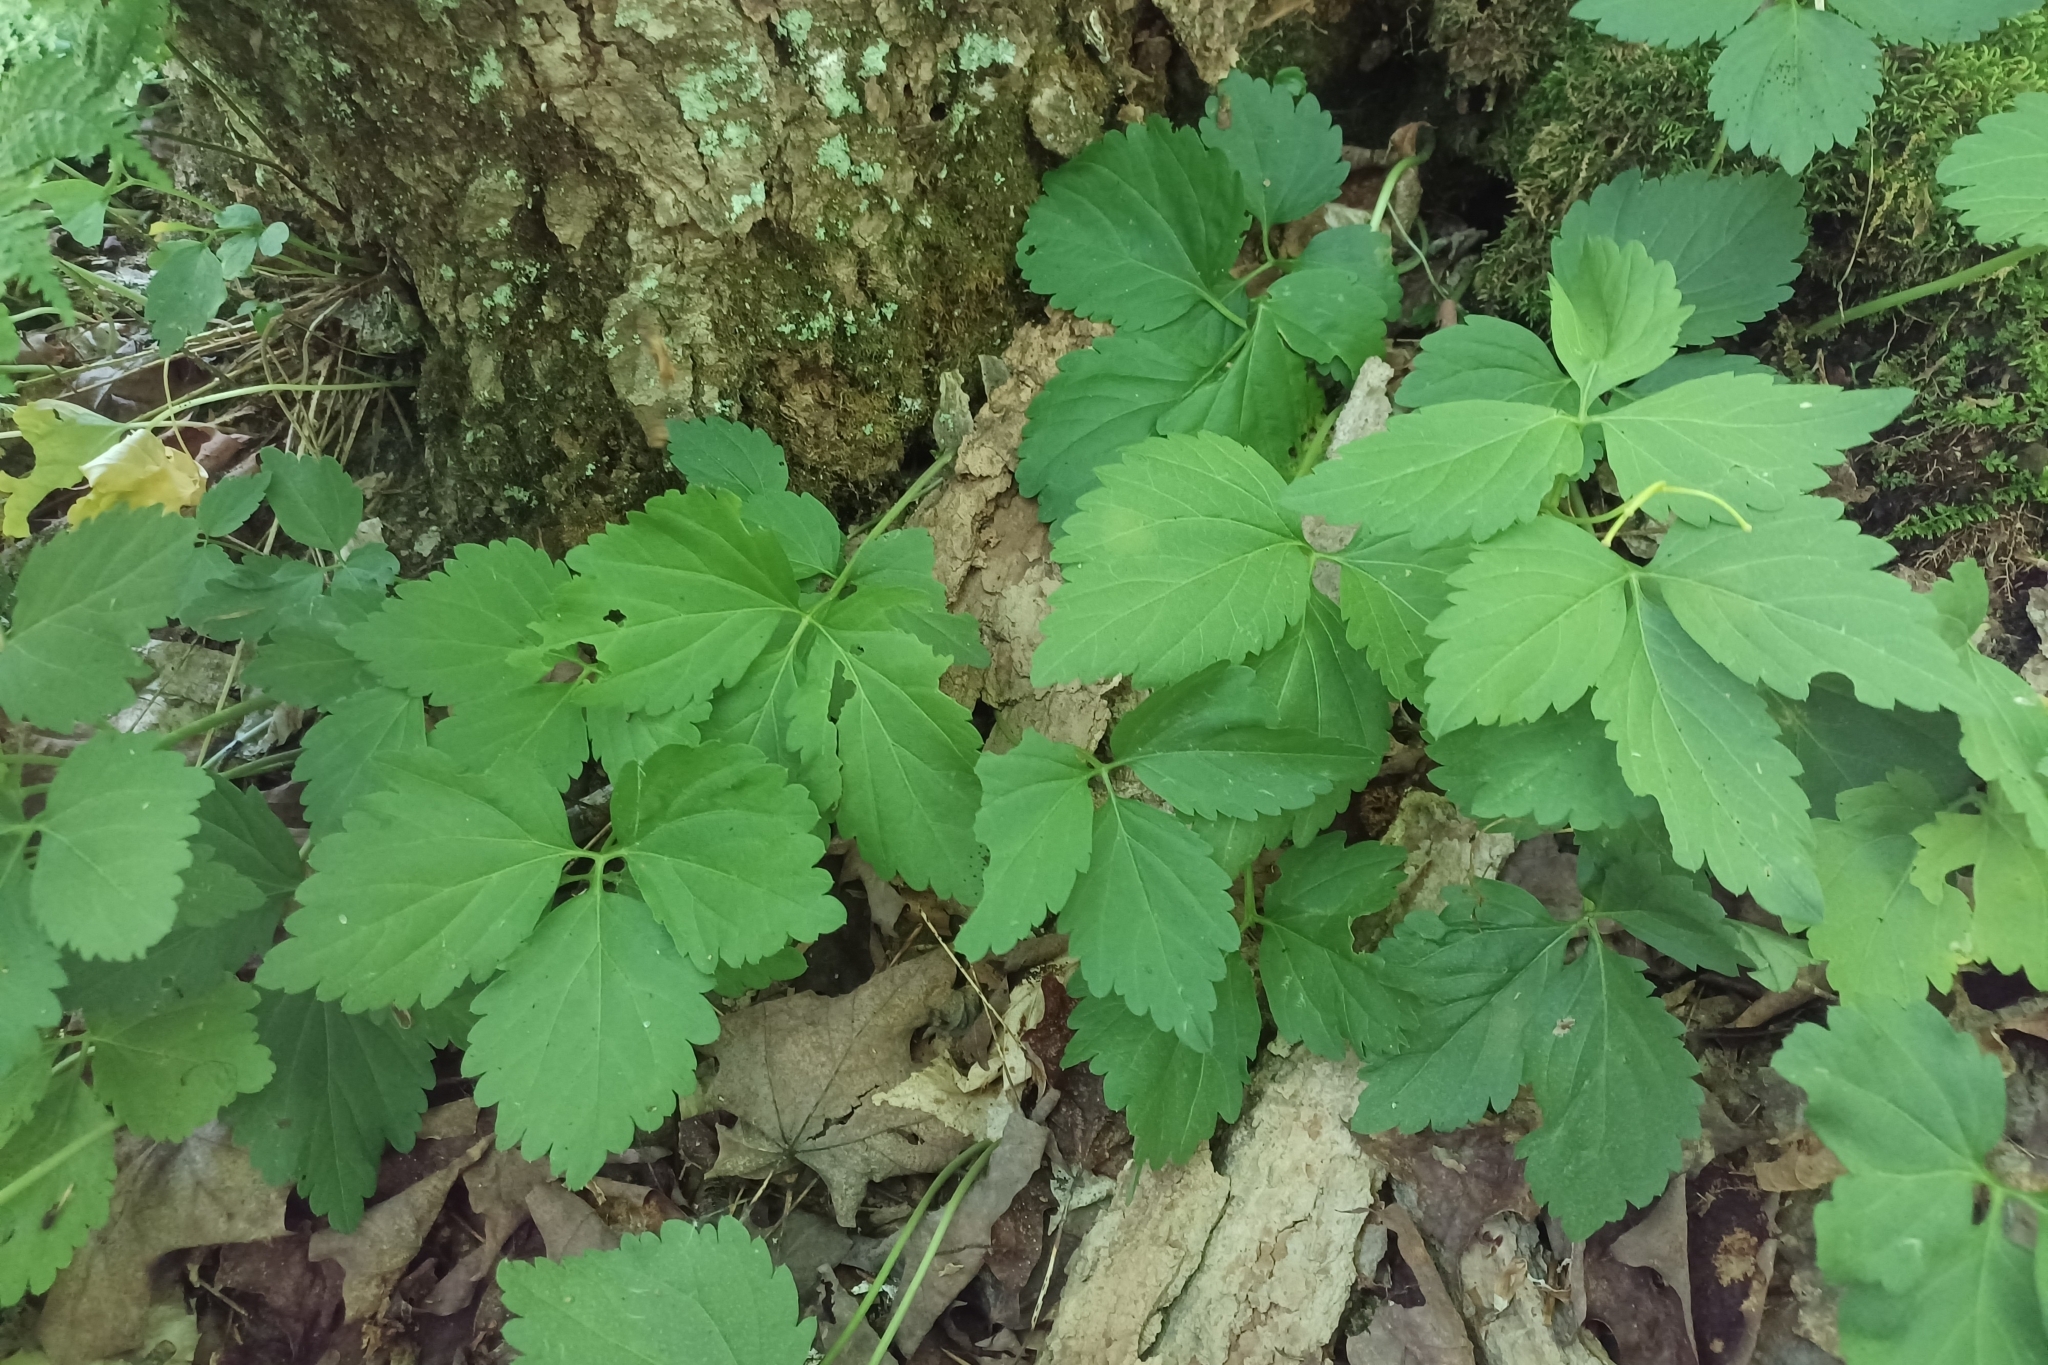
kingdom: Plantae
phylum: Tracheophyta
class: Magnoliopsida
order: Brassicales
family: Brassicaceae
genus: Cardamine
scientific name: Cardamine diphylla
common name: Broad-leaved toothwort
